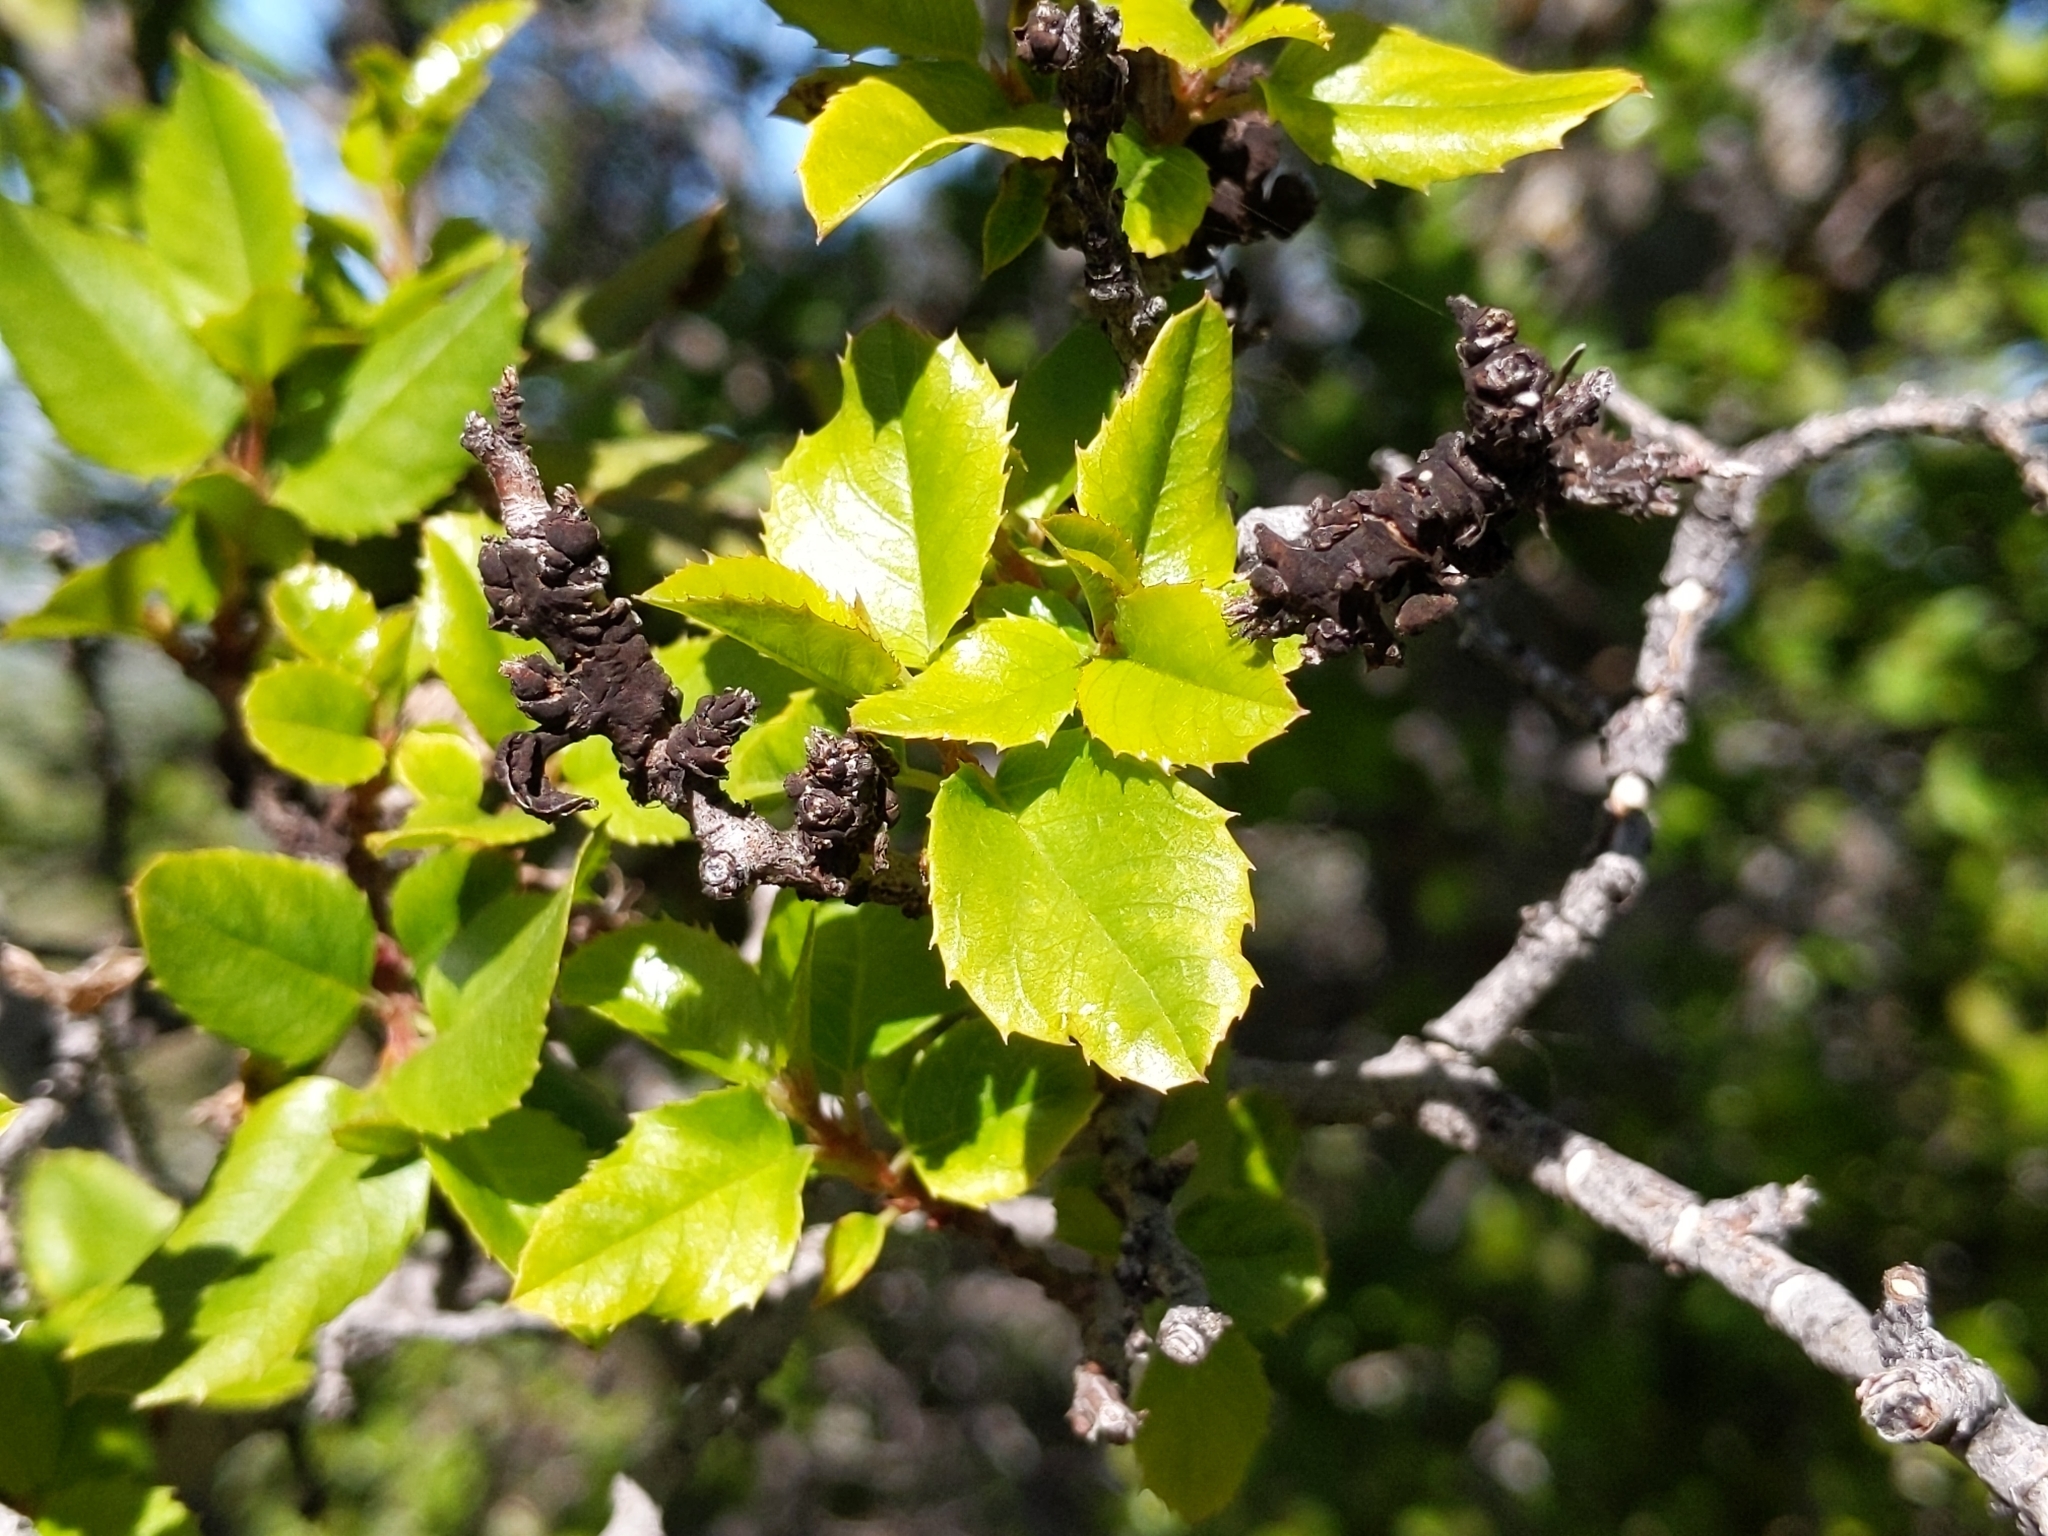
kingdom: Plantae
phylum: Tracheophyta
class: Magnoliopsida
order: Rosales
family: Rhamnaceae
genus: Endotropis
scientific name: Endotropis crocea
